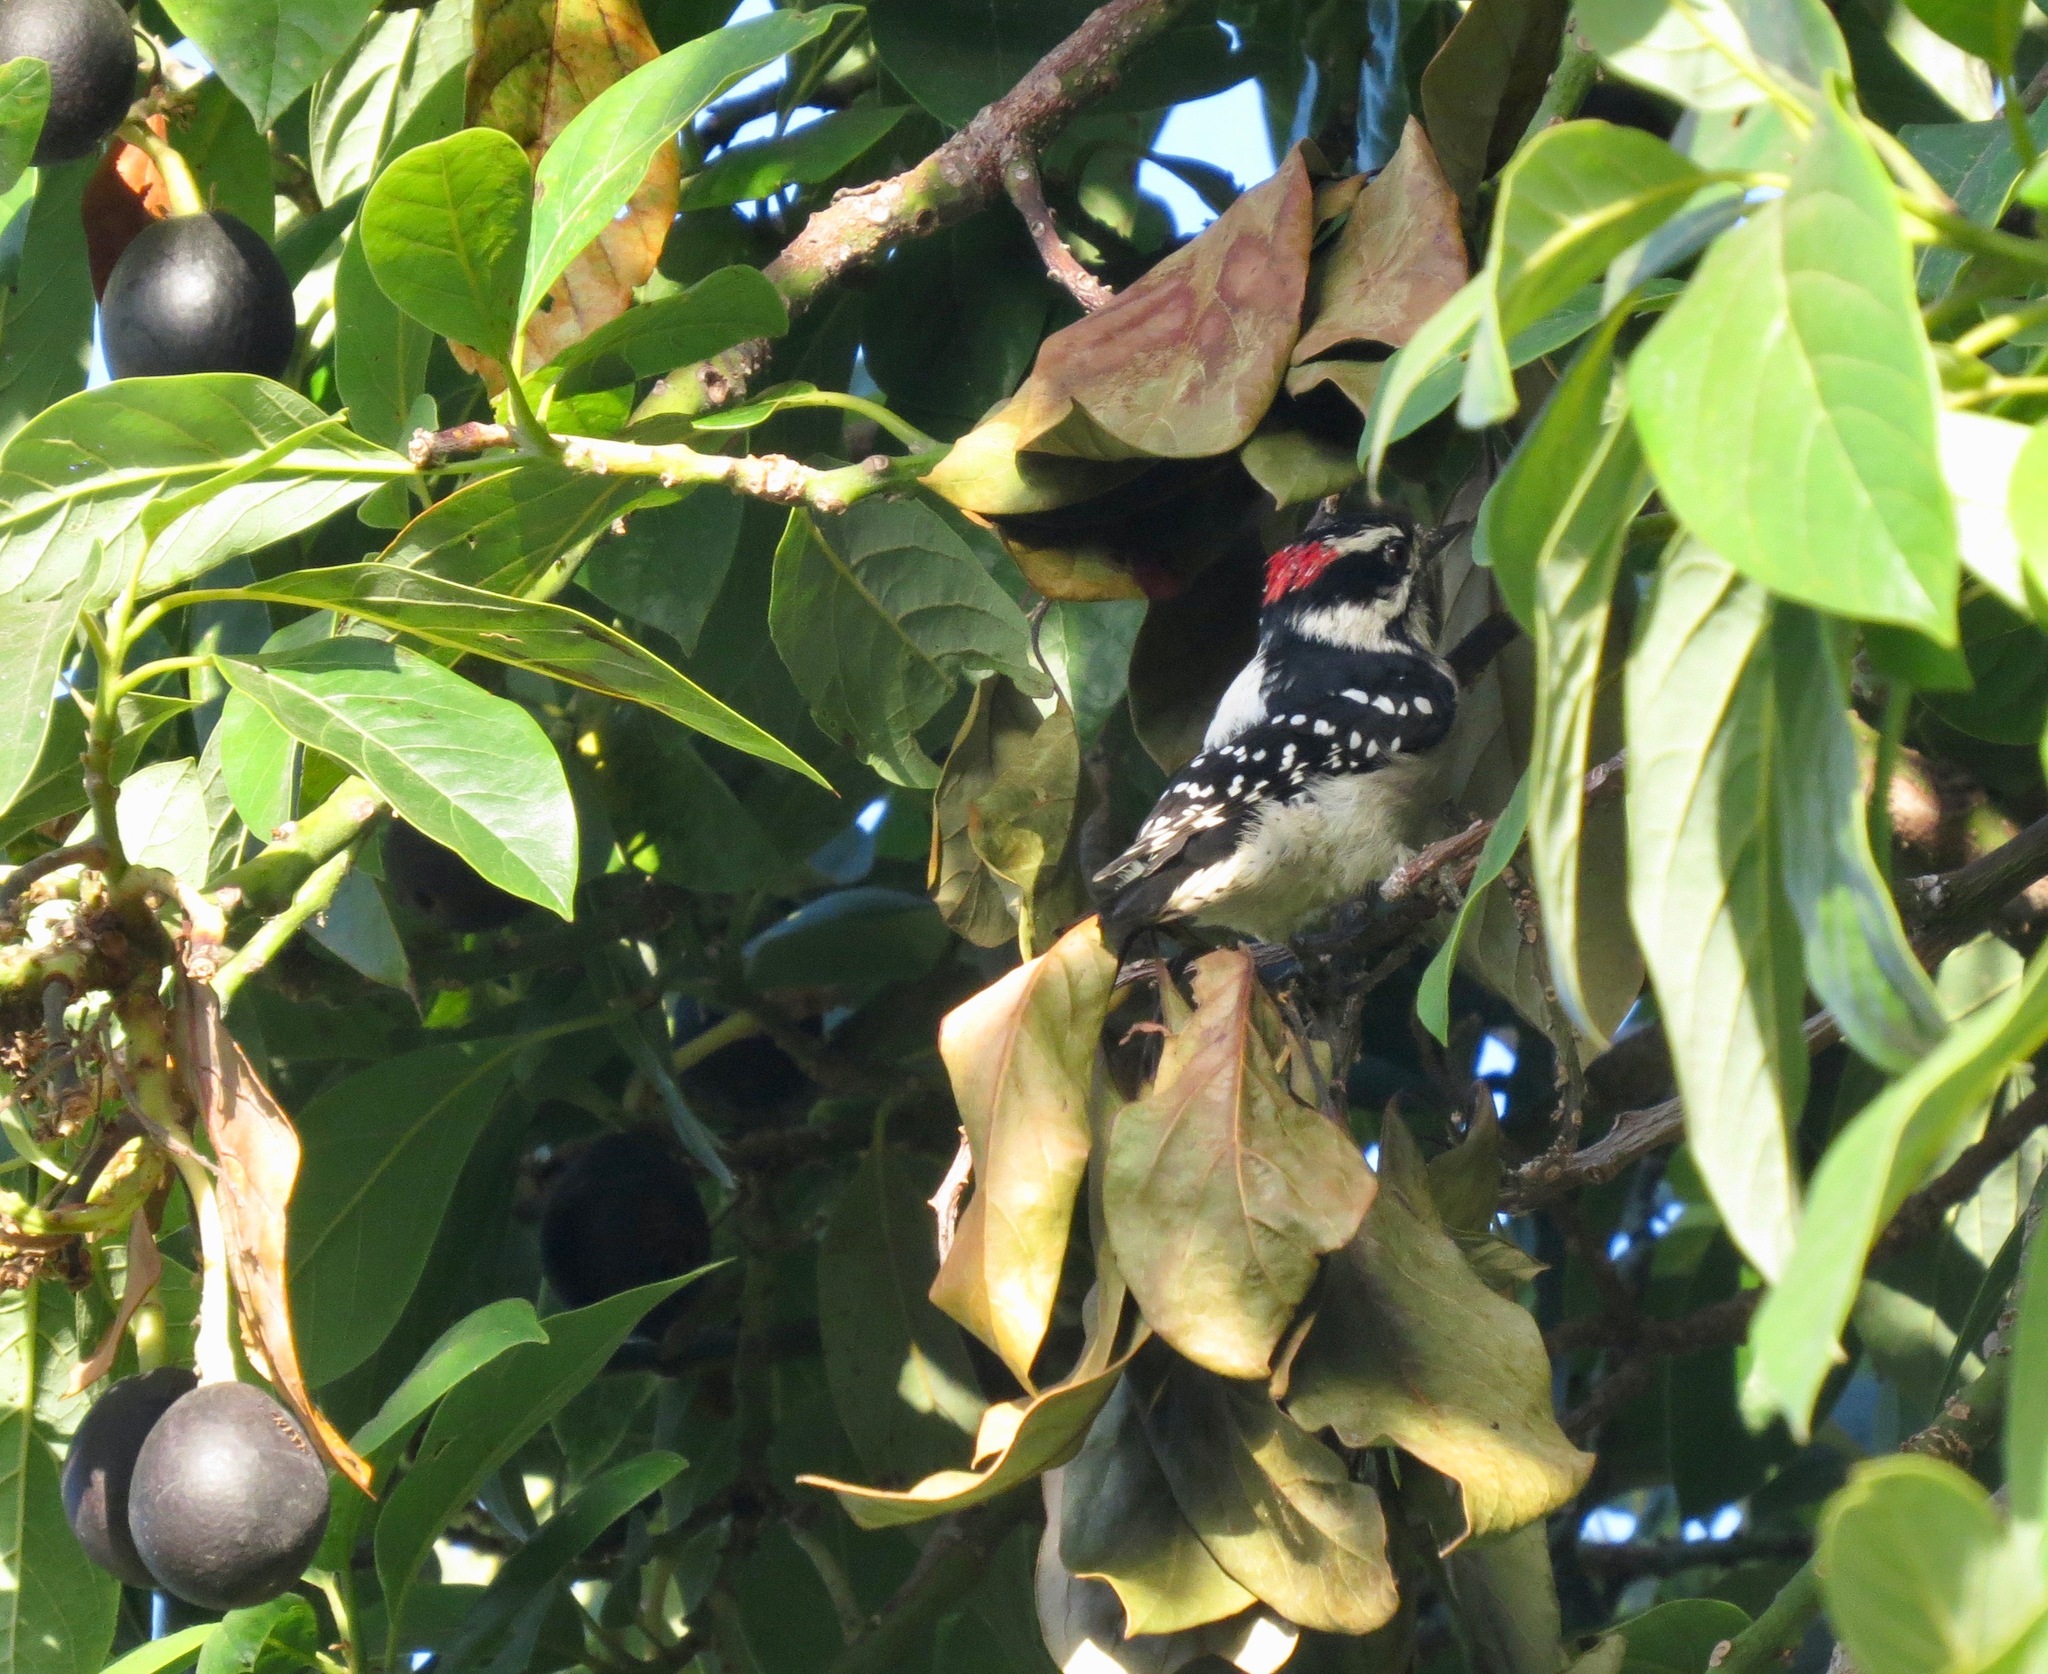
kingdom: Animalia
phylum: Chordata
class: Aves
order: Piciformes
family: Picidae
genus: Dryobates
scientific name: Dryobates pubescens
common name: Downy woodpecker
